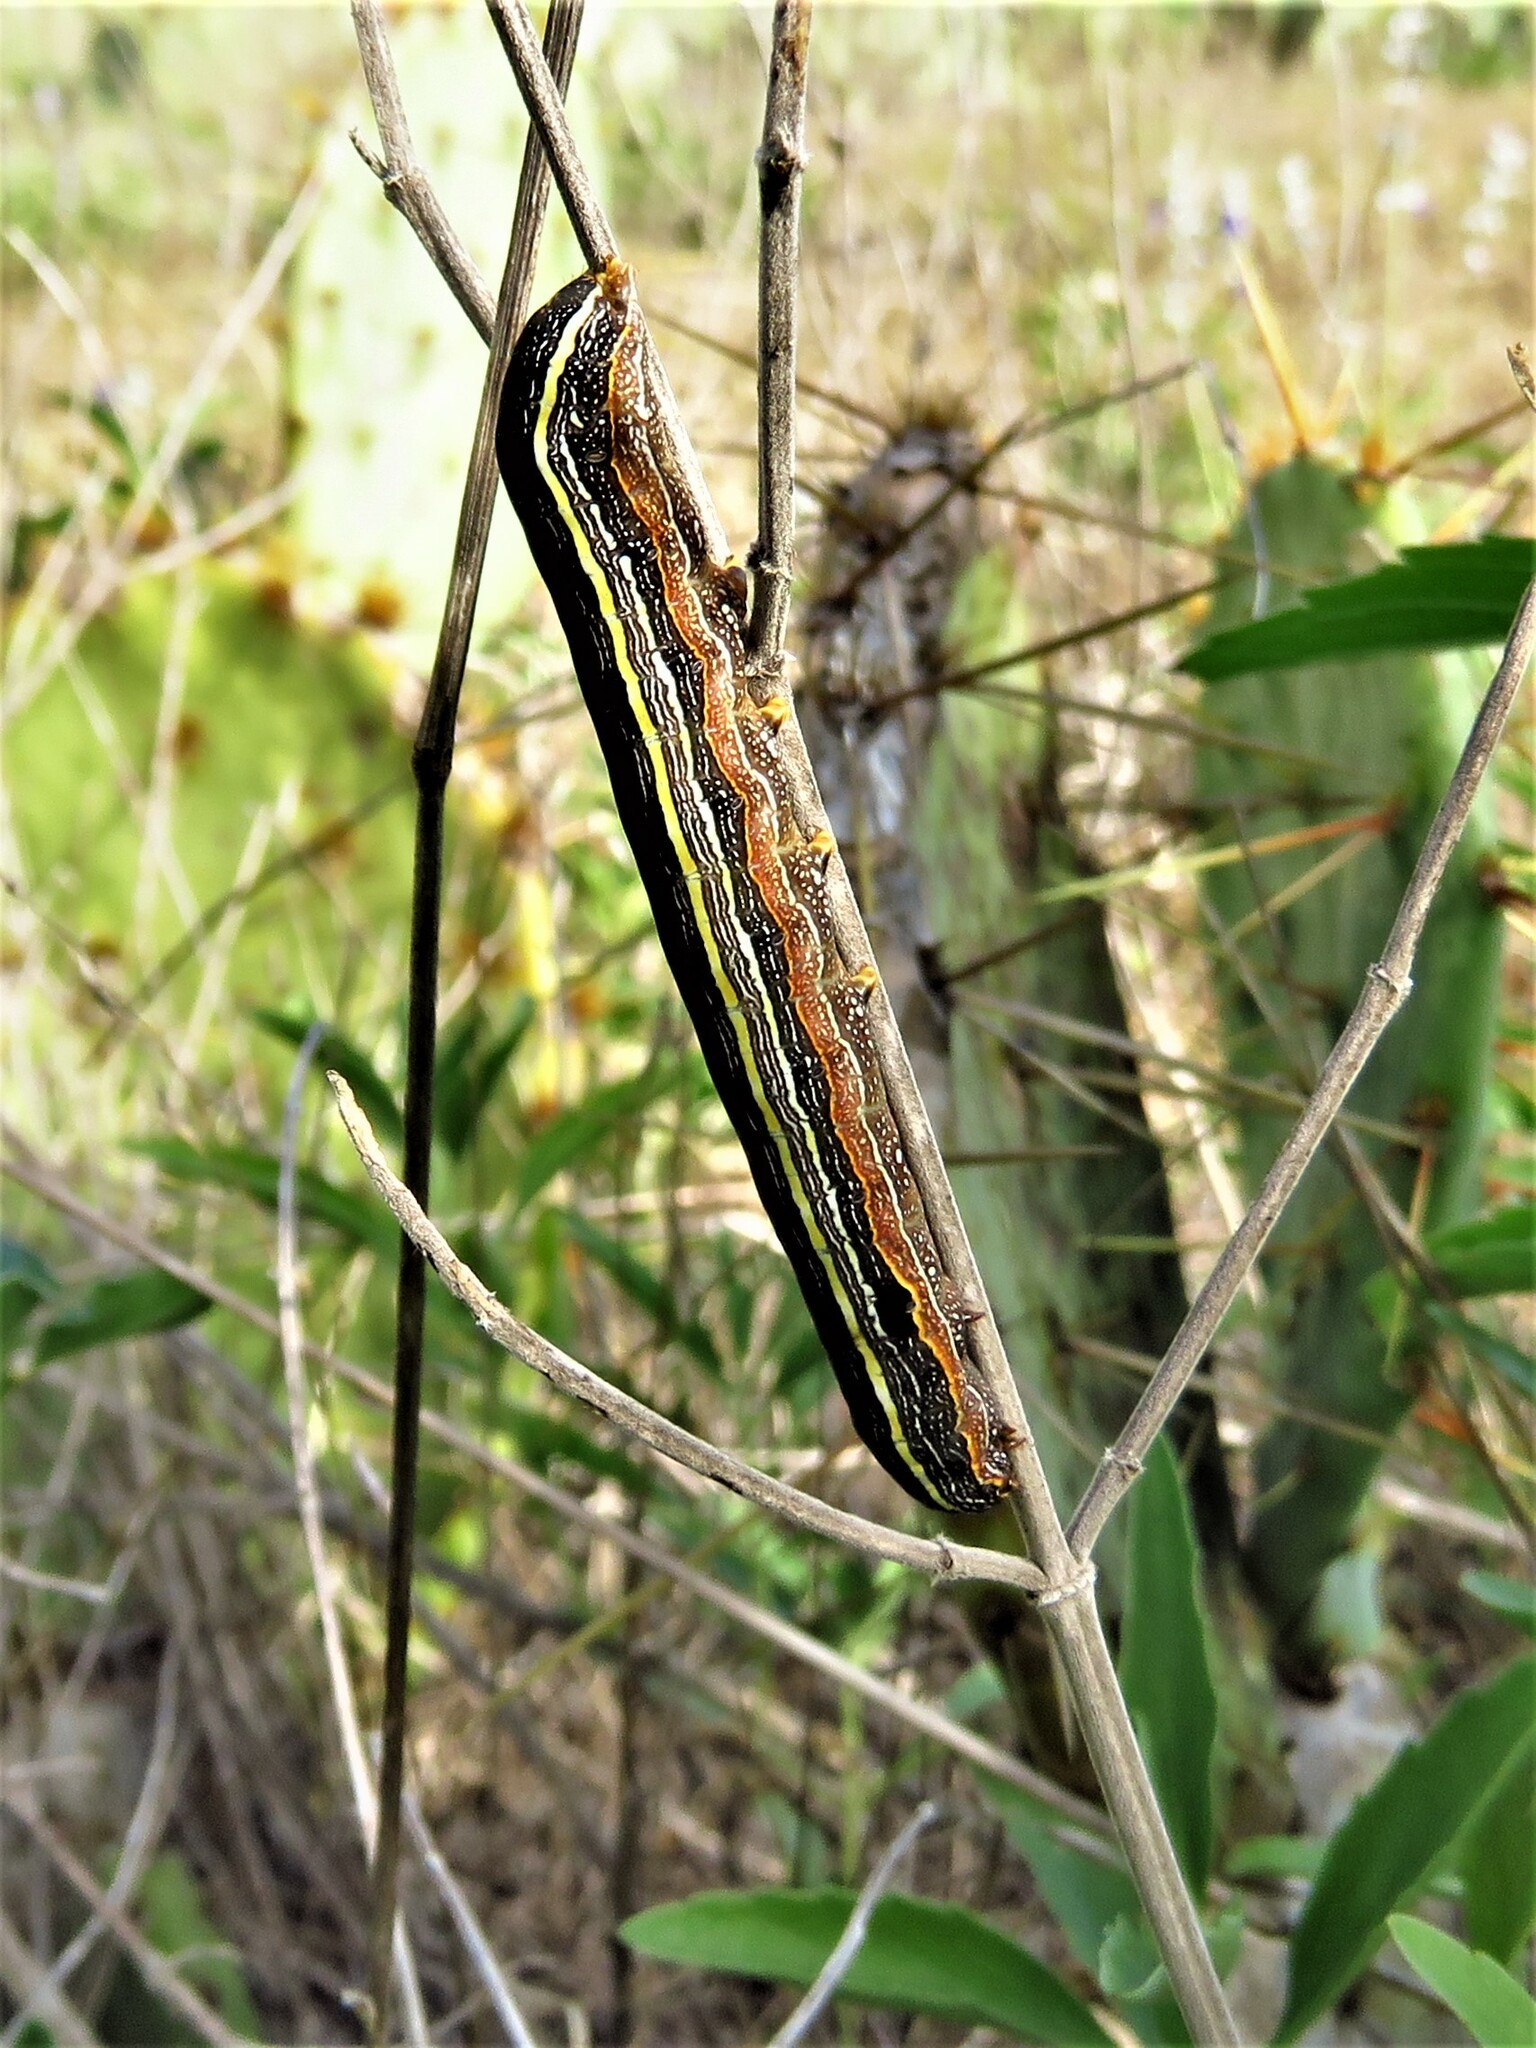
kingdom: Animalia
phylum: Arthropoda
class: Insecta
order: Lepidoptera
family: Noctuidae
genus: Spodoptera
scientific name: Spodoptera ornithogalli
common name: Yellow-striped armyworm
